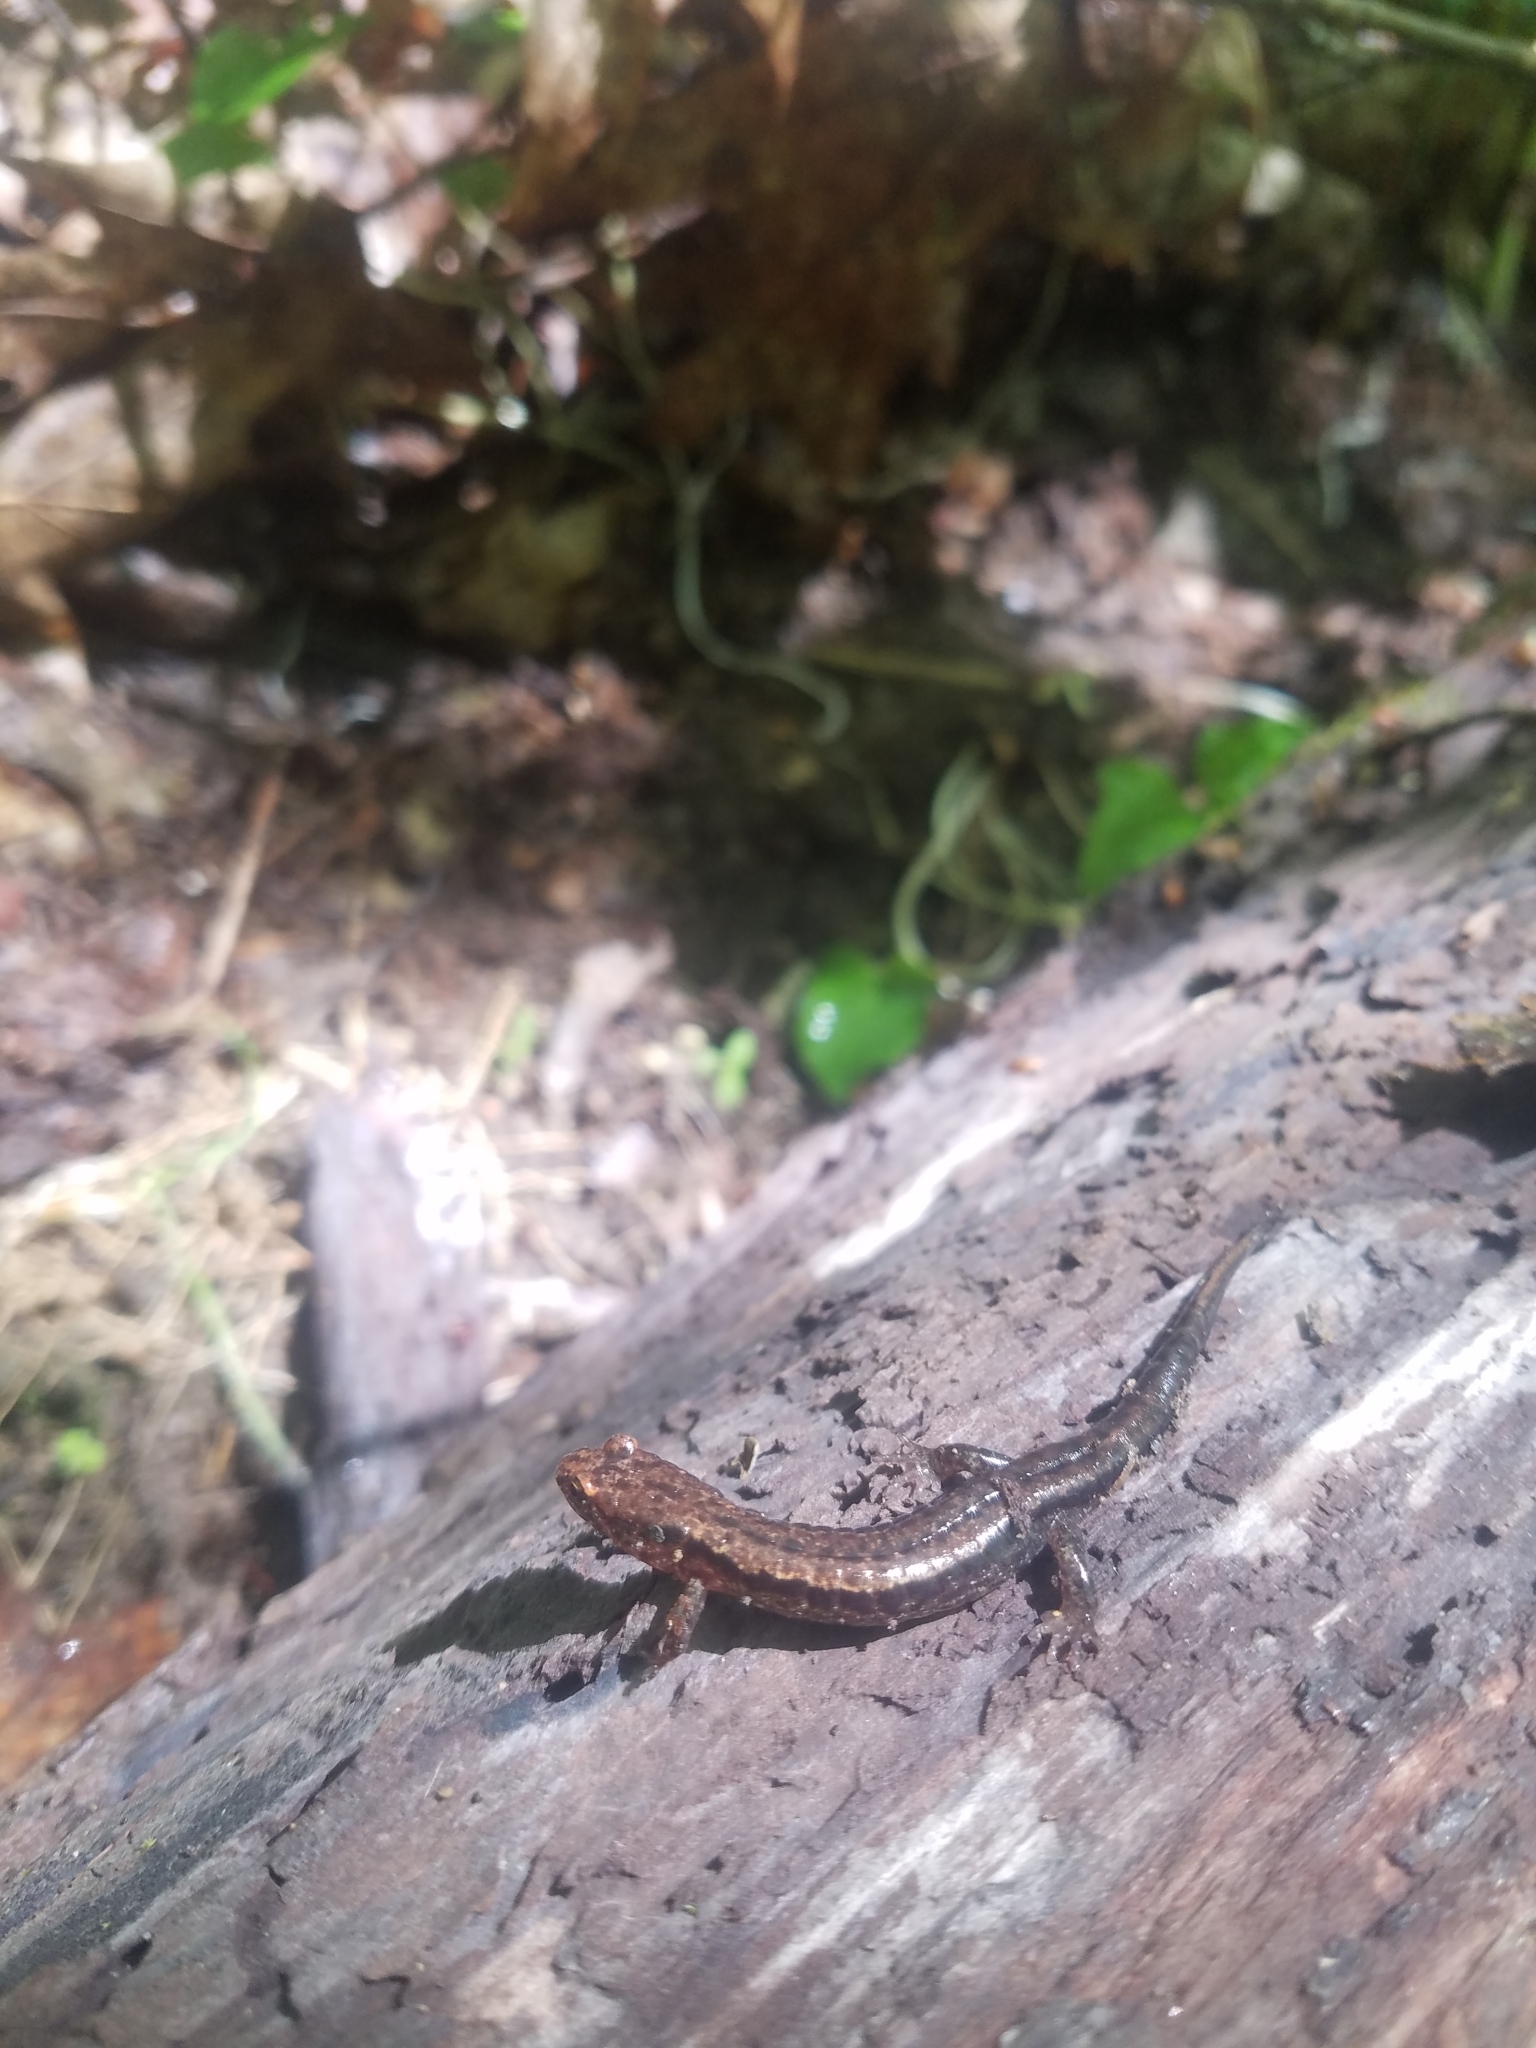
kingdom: Animalia
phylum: Chordata
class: Amphibia
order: Caudata
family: Plethodontidae
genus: Desmognathus
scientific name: Desmognathus orestes
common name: Blue ridge dusky salamander
